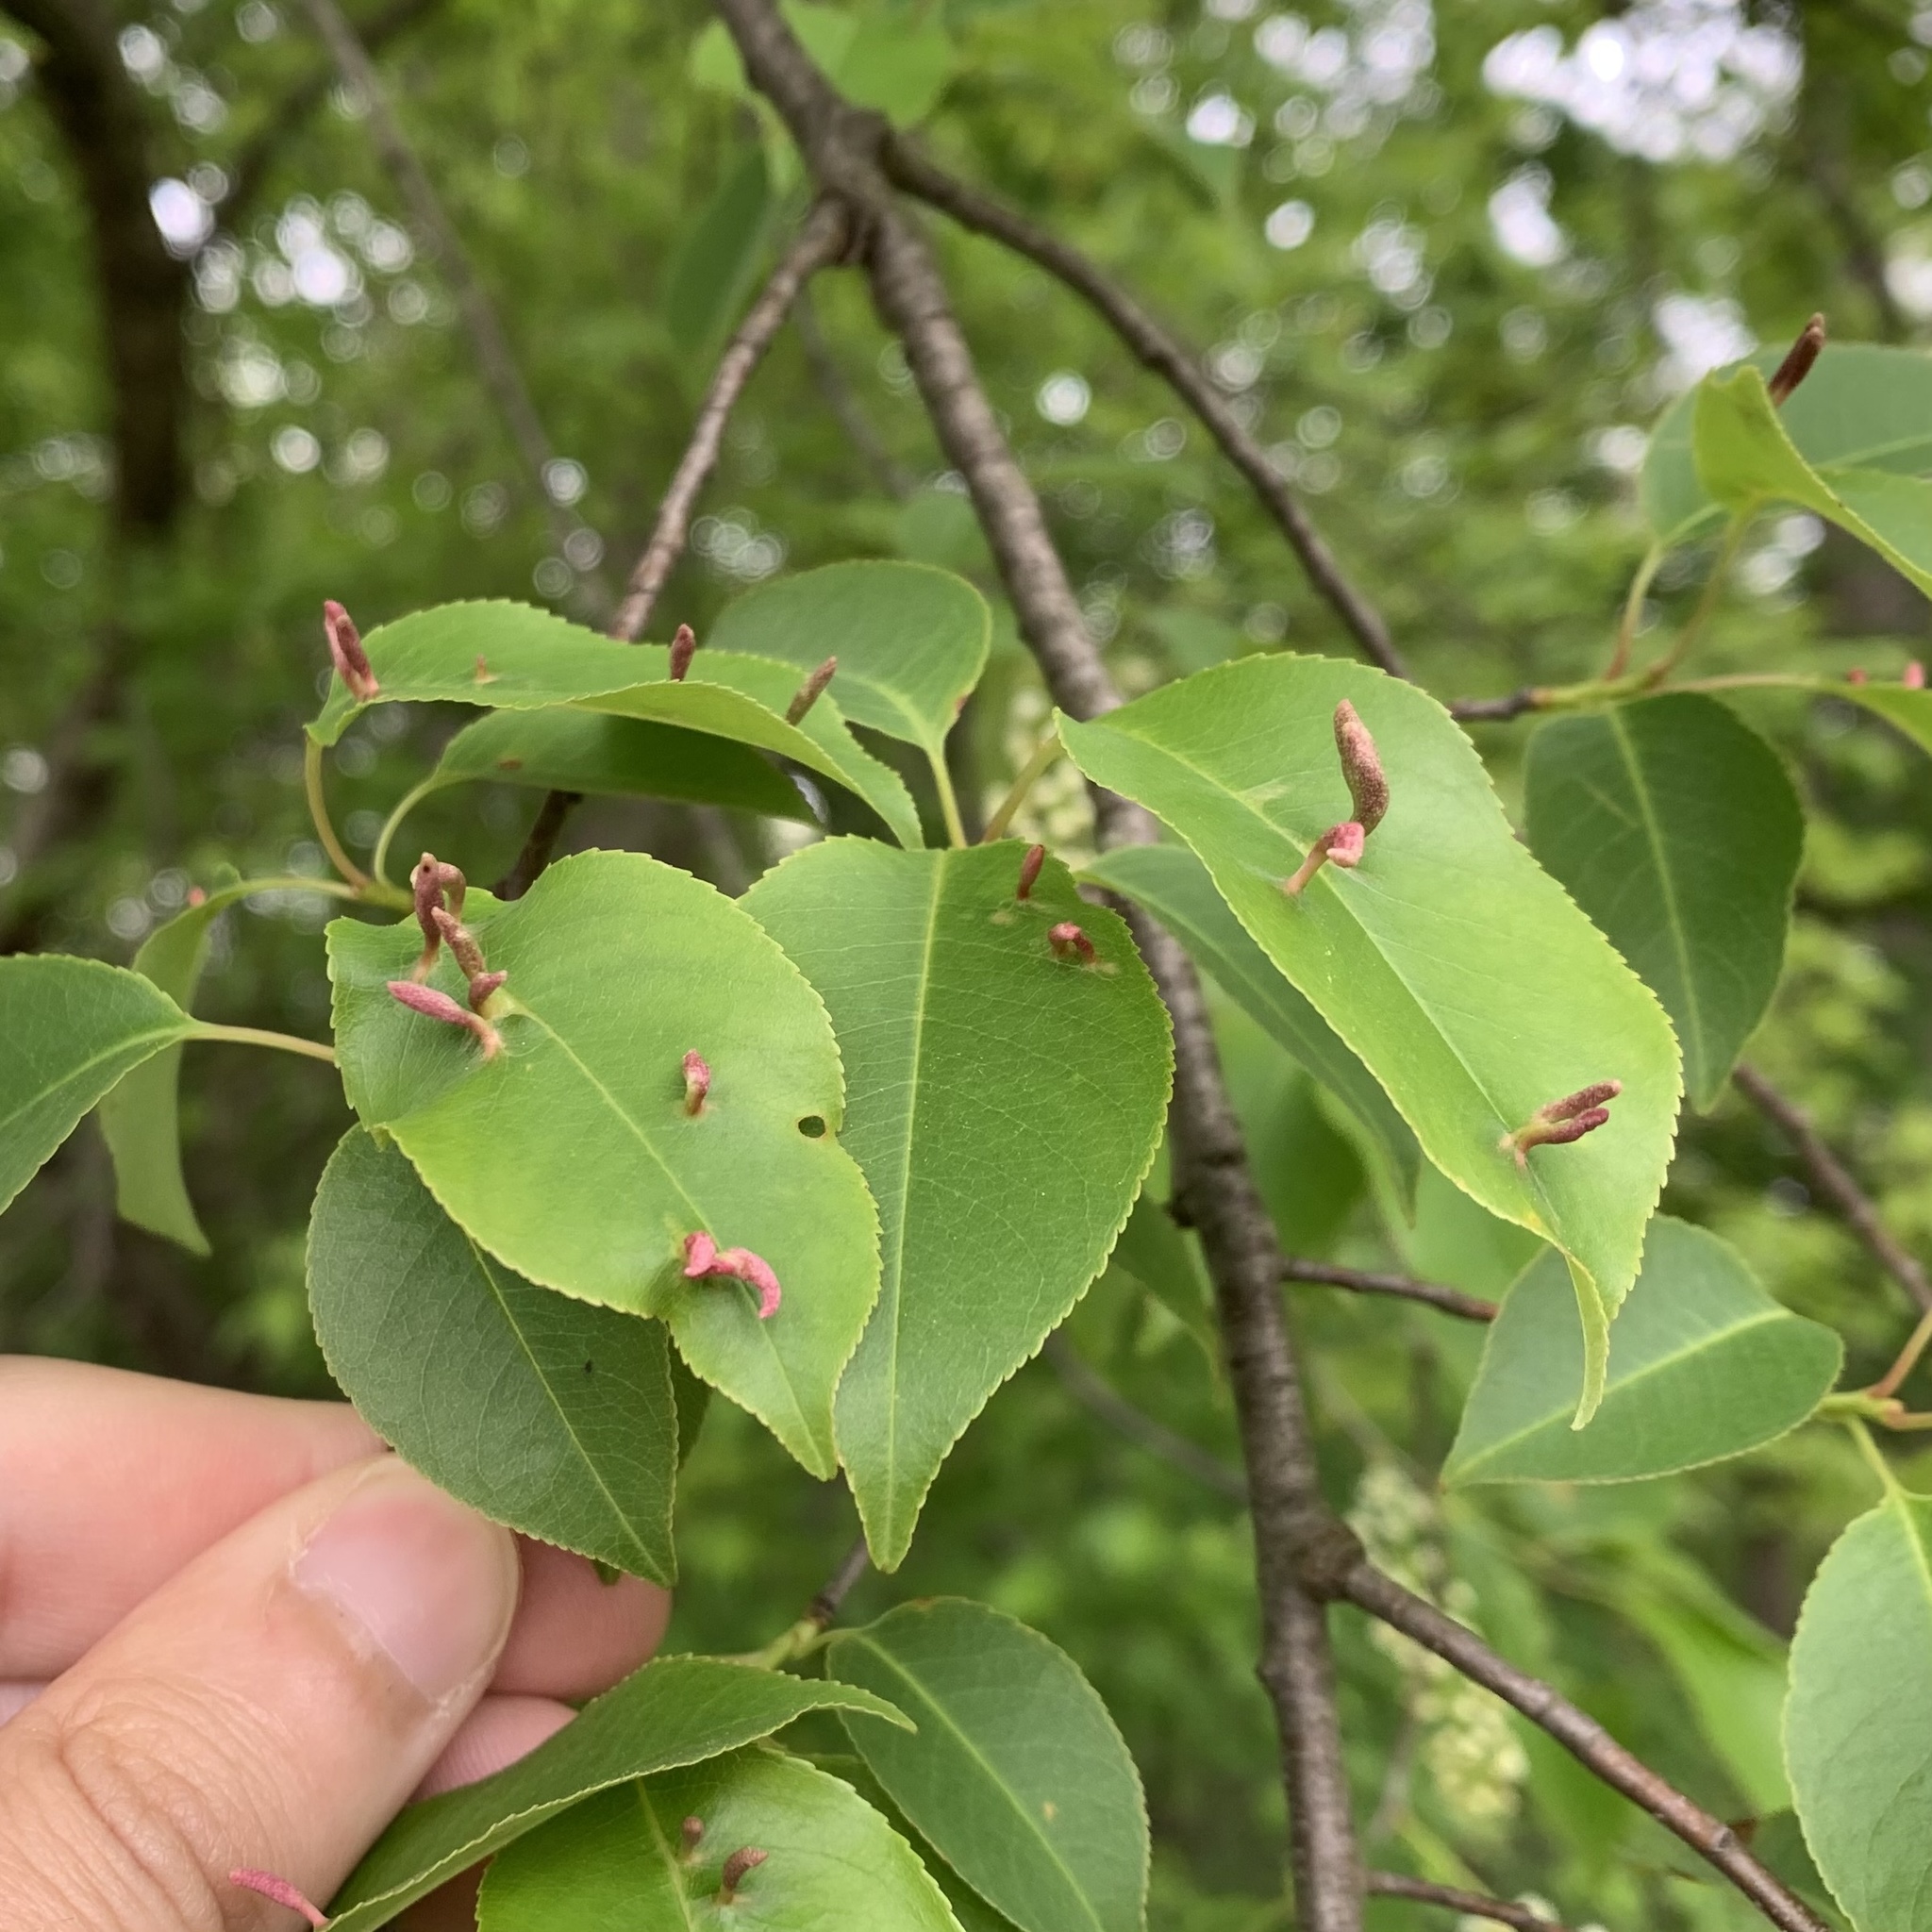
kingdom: Animalia
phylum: Arthropoda
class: Arachnida
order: Trombidiformes
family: Eriophyidae
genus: Eriophyes
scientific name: Eriophyes
